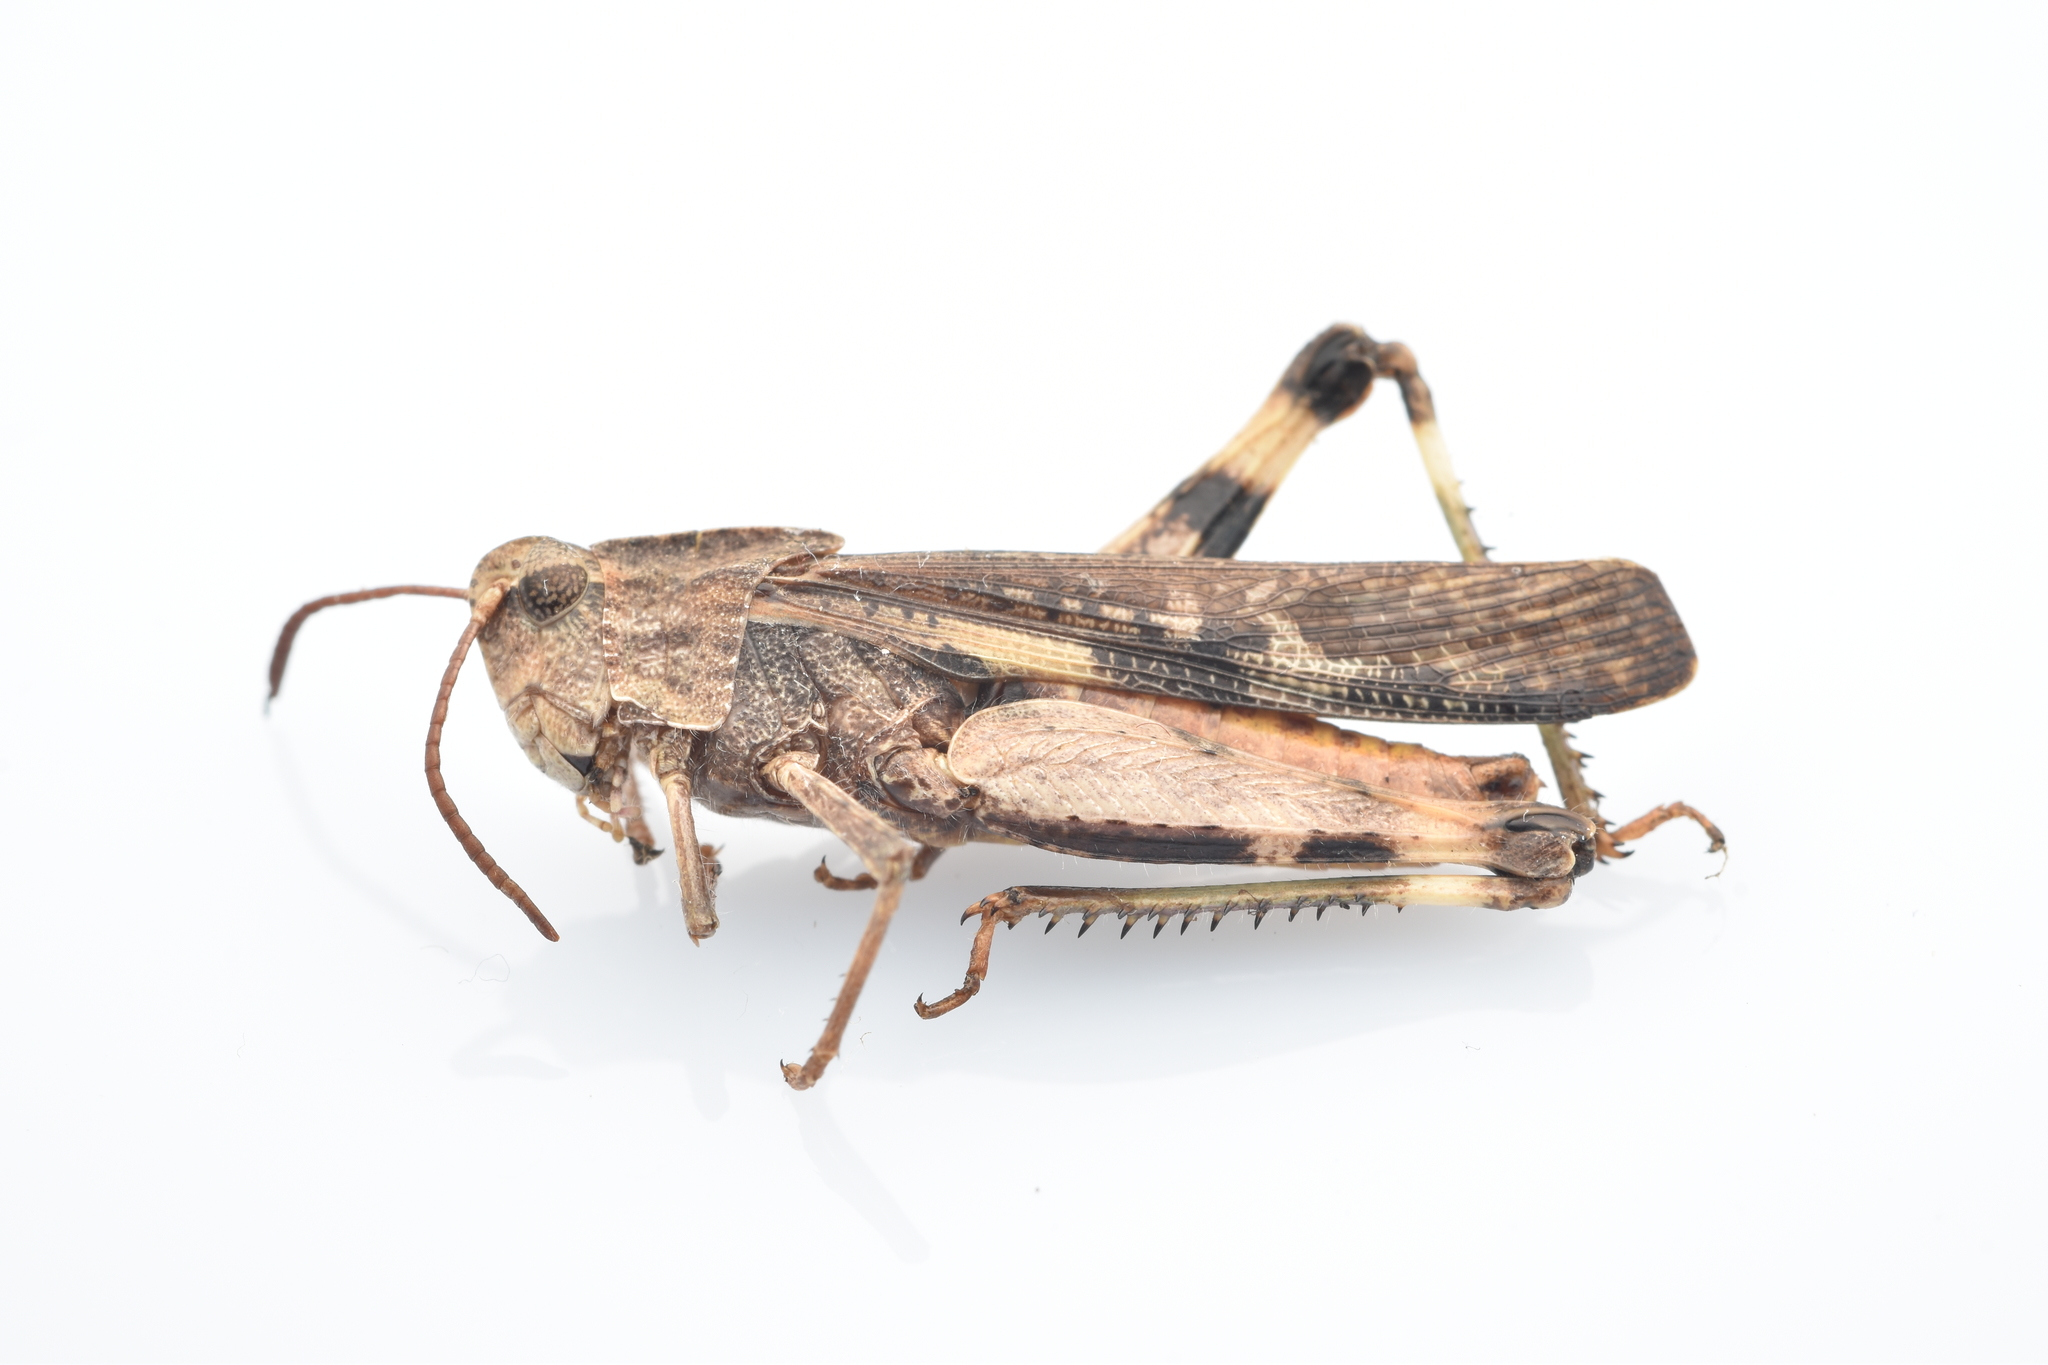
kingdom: Animalia
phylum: Arthropoda
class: Insecta
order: Orthoptera
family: Acrididae
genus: Chortophaga
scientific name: Chortophaga viridifasciata
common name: Green-striped grasshopper
